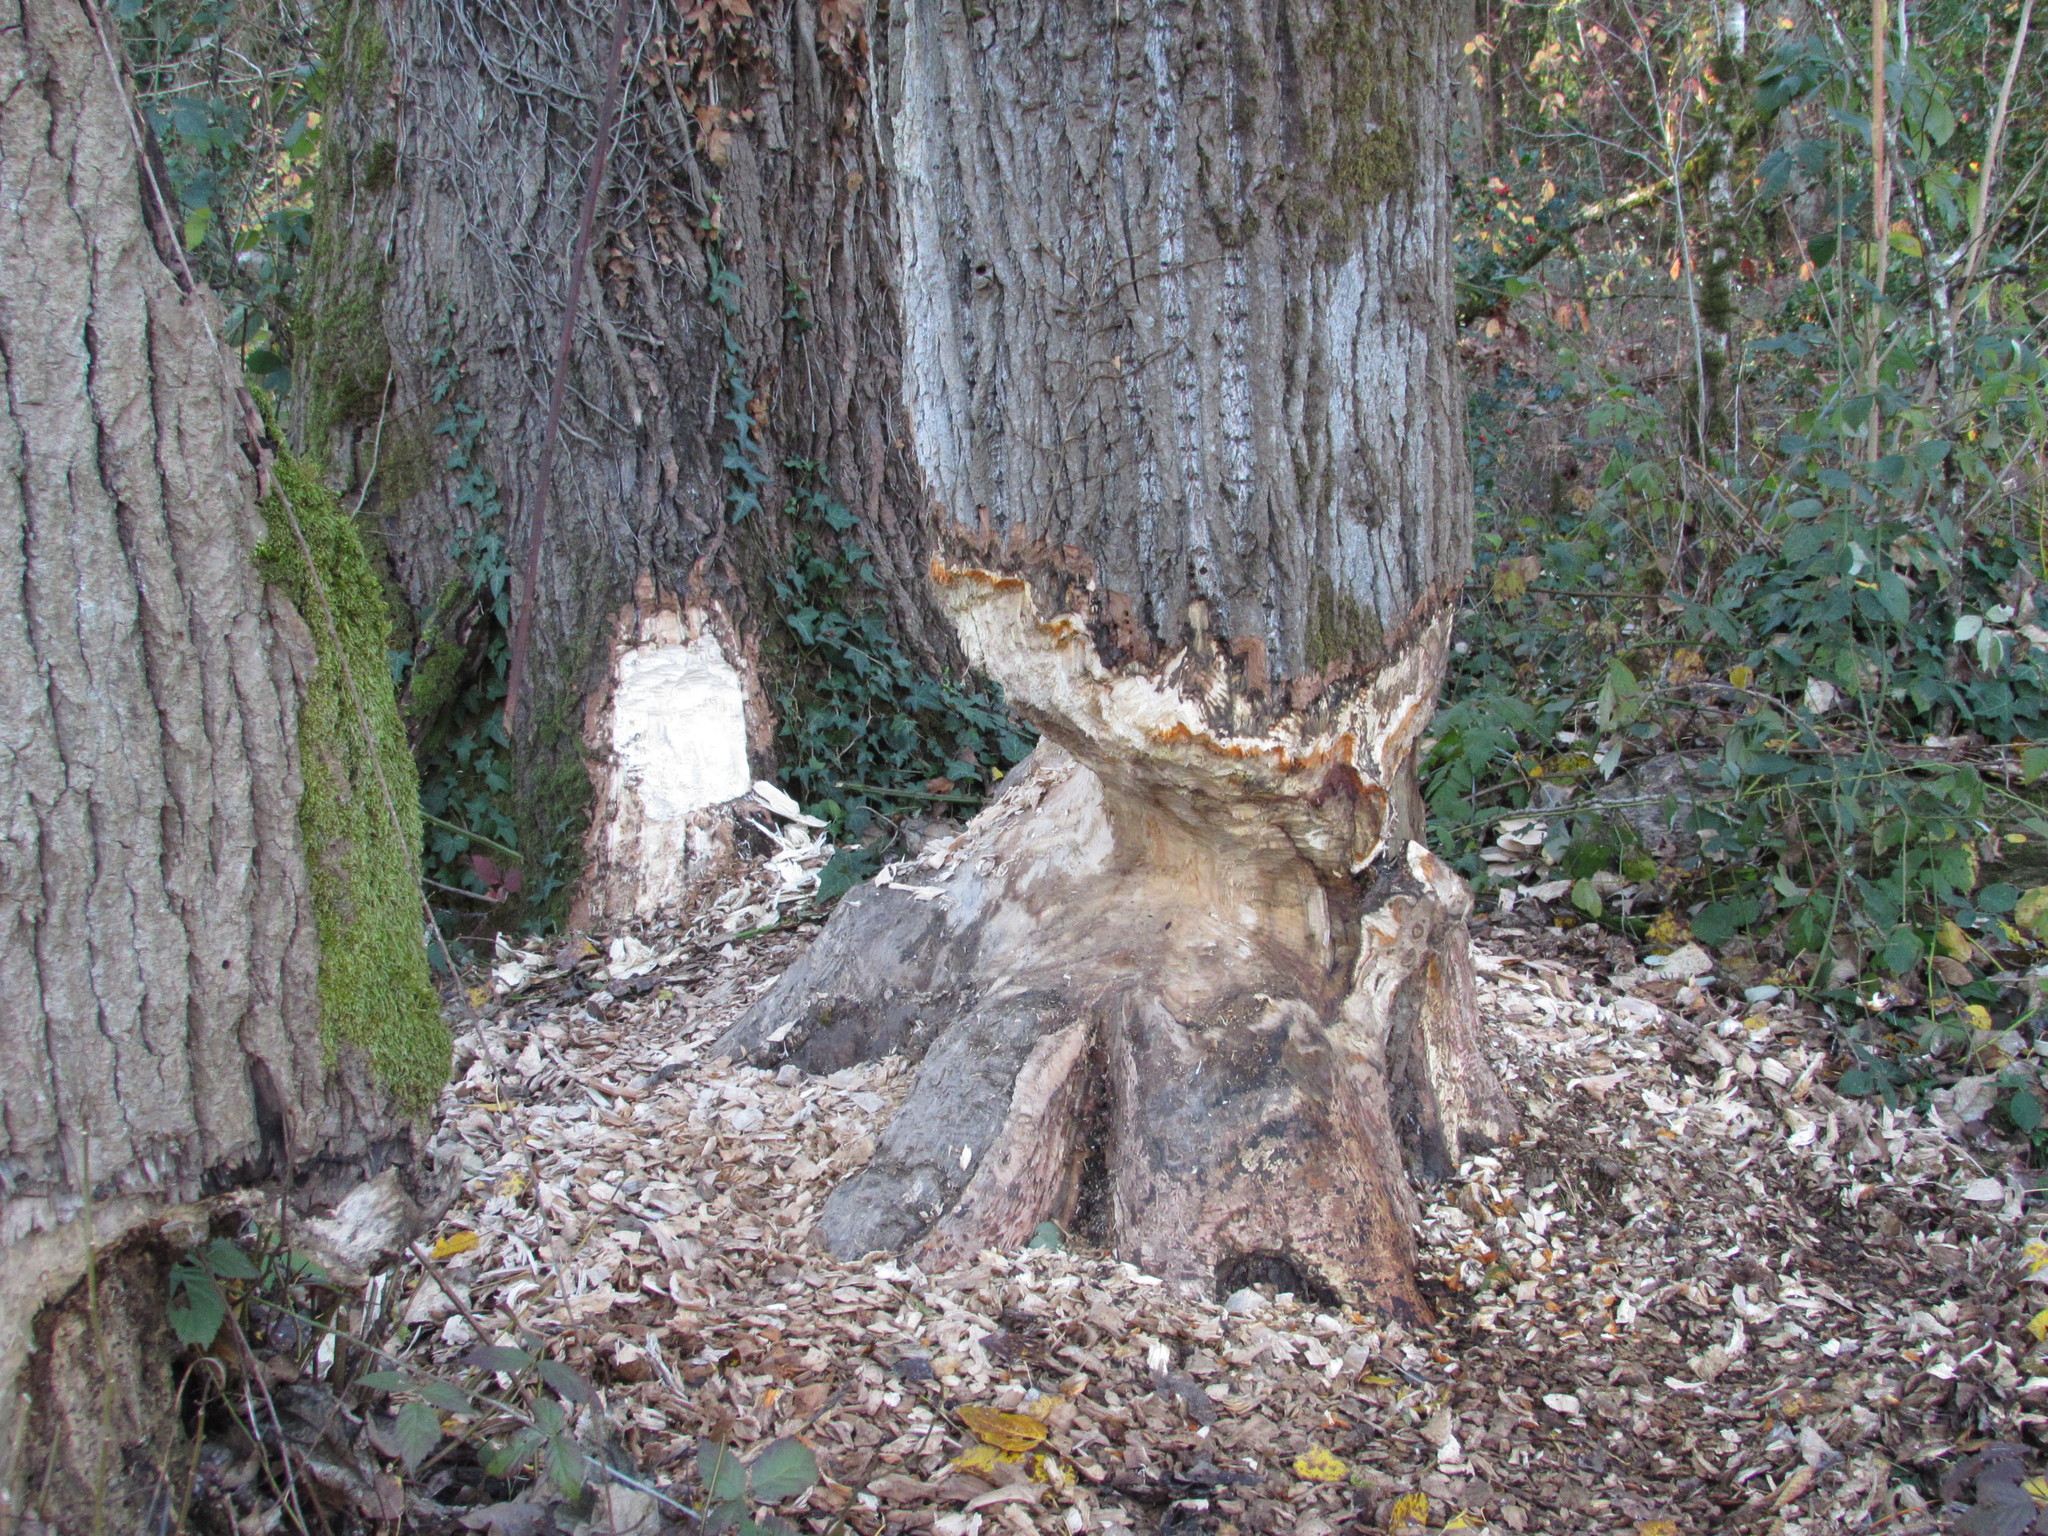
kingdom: Animalia
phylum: Chordata
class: Mammalia
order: Rodentia
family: Castoridae
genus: Castor
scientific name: Castor canadensis
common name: American beaver
